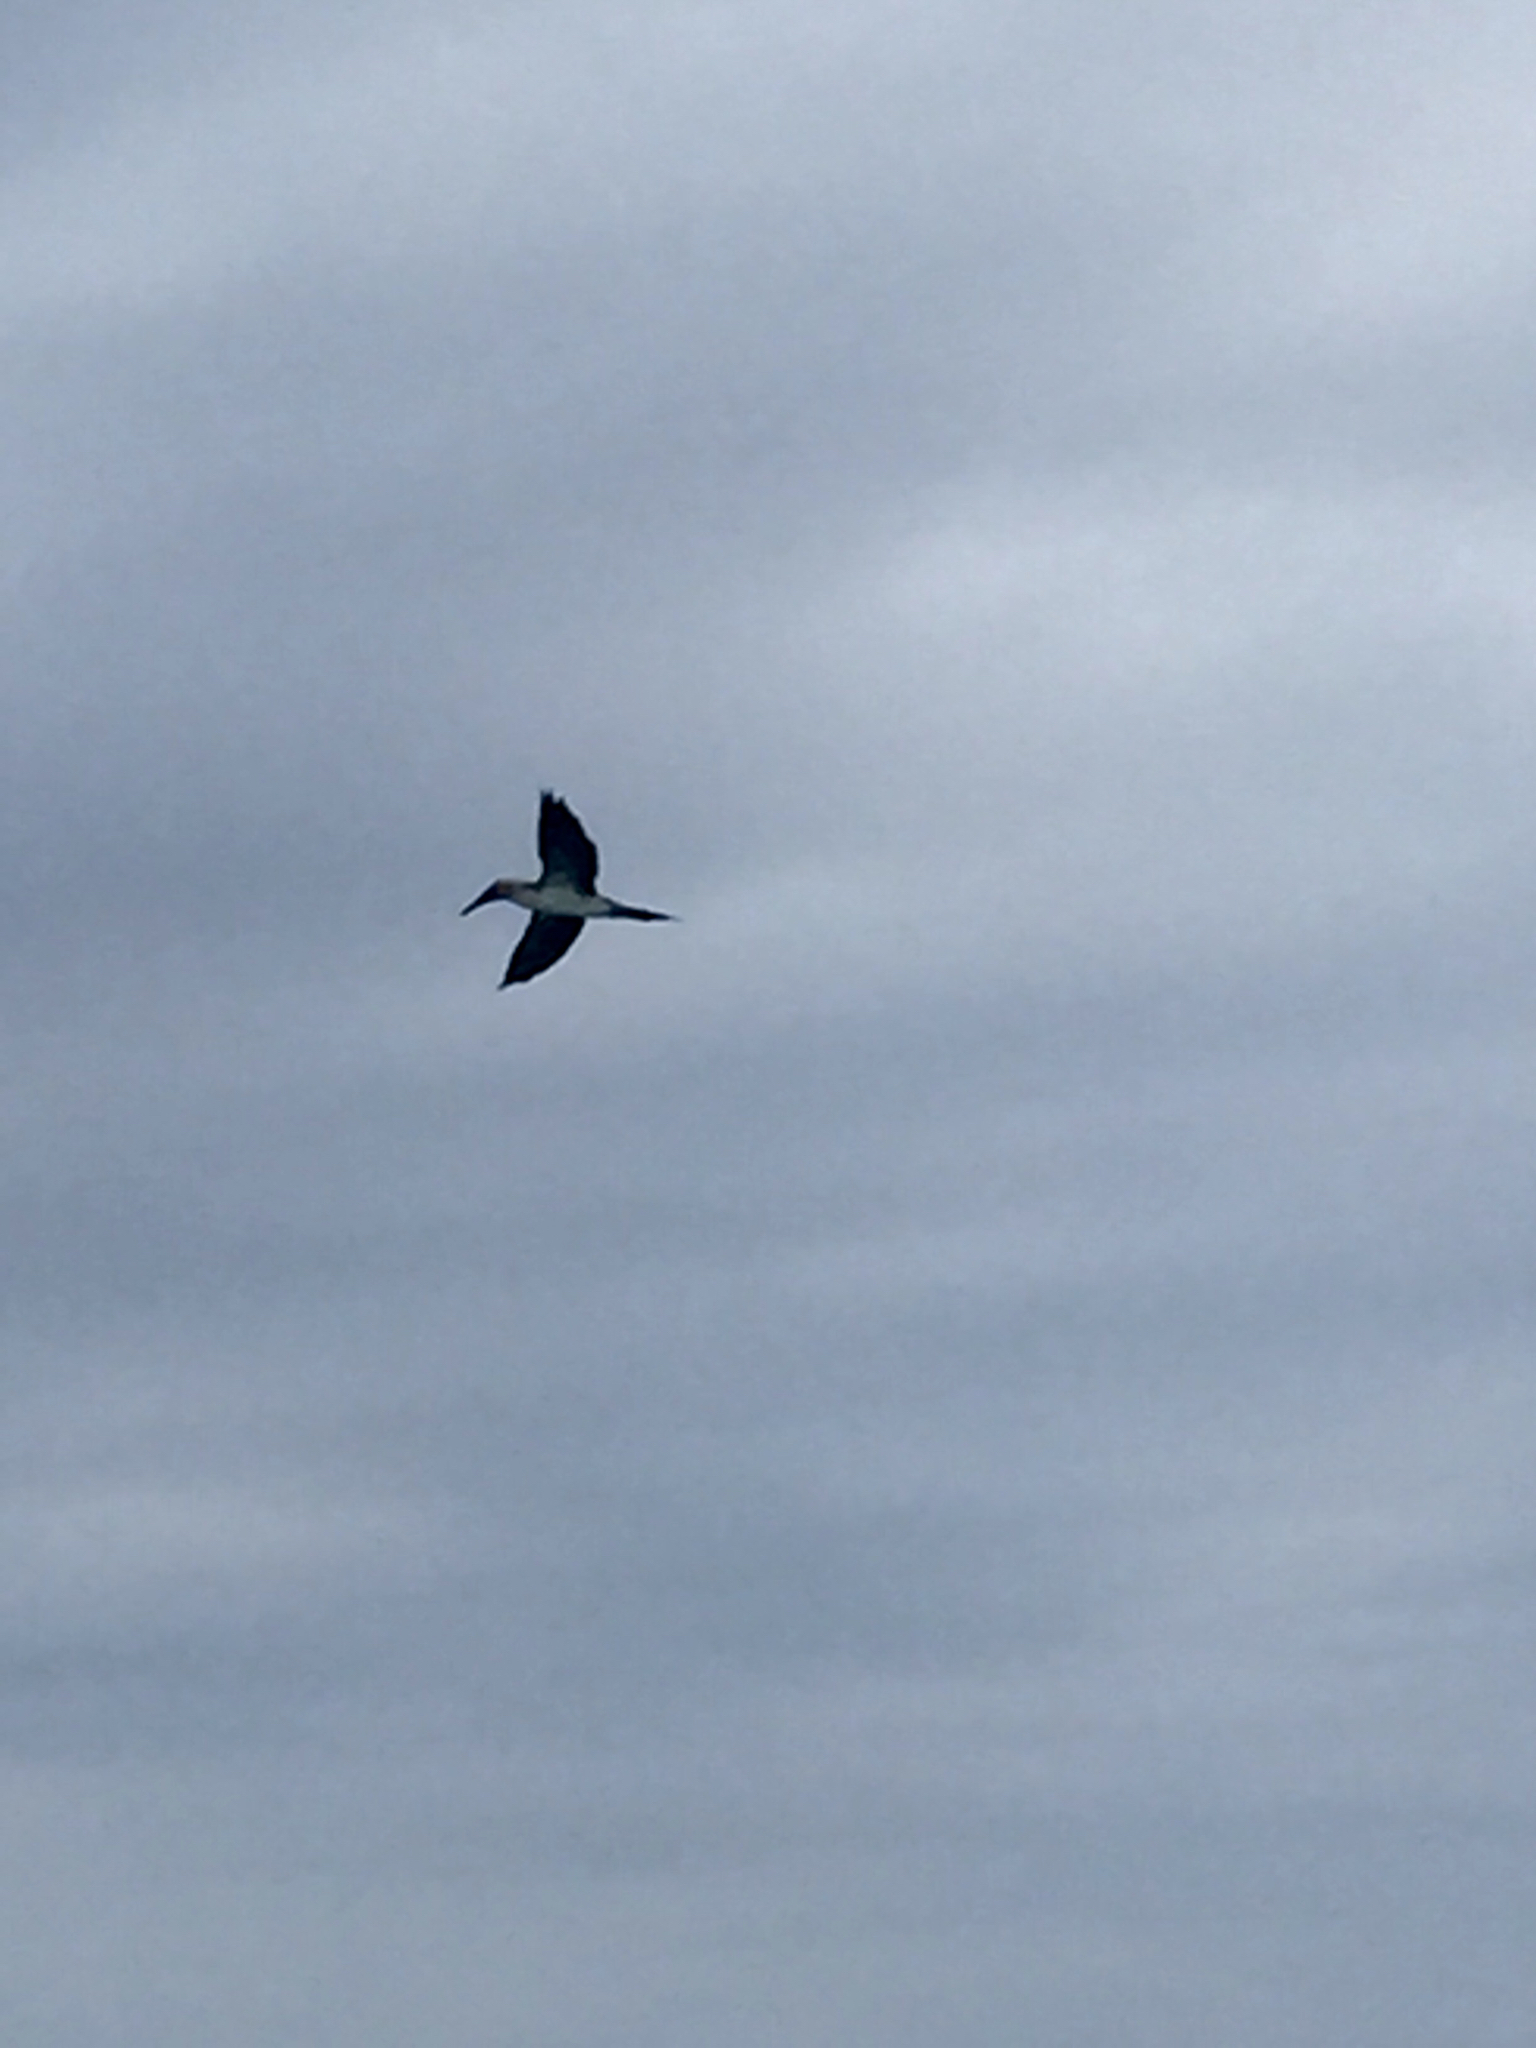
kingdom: Animalia
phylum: Chordata
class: Aves
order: Suliformes
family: Sulidae
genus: Sula
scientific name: Sula nebouxii
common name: Blue-footed booby
